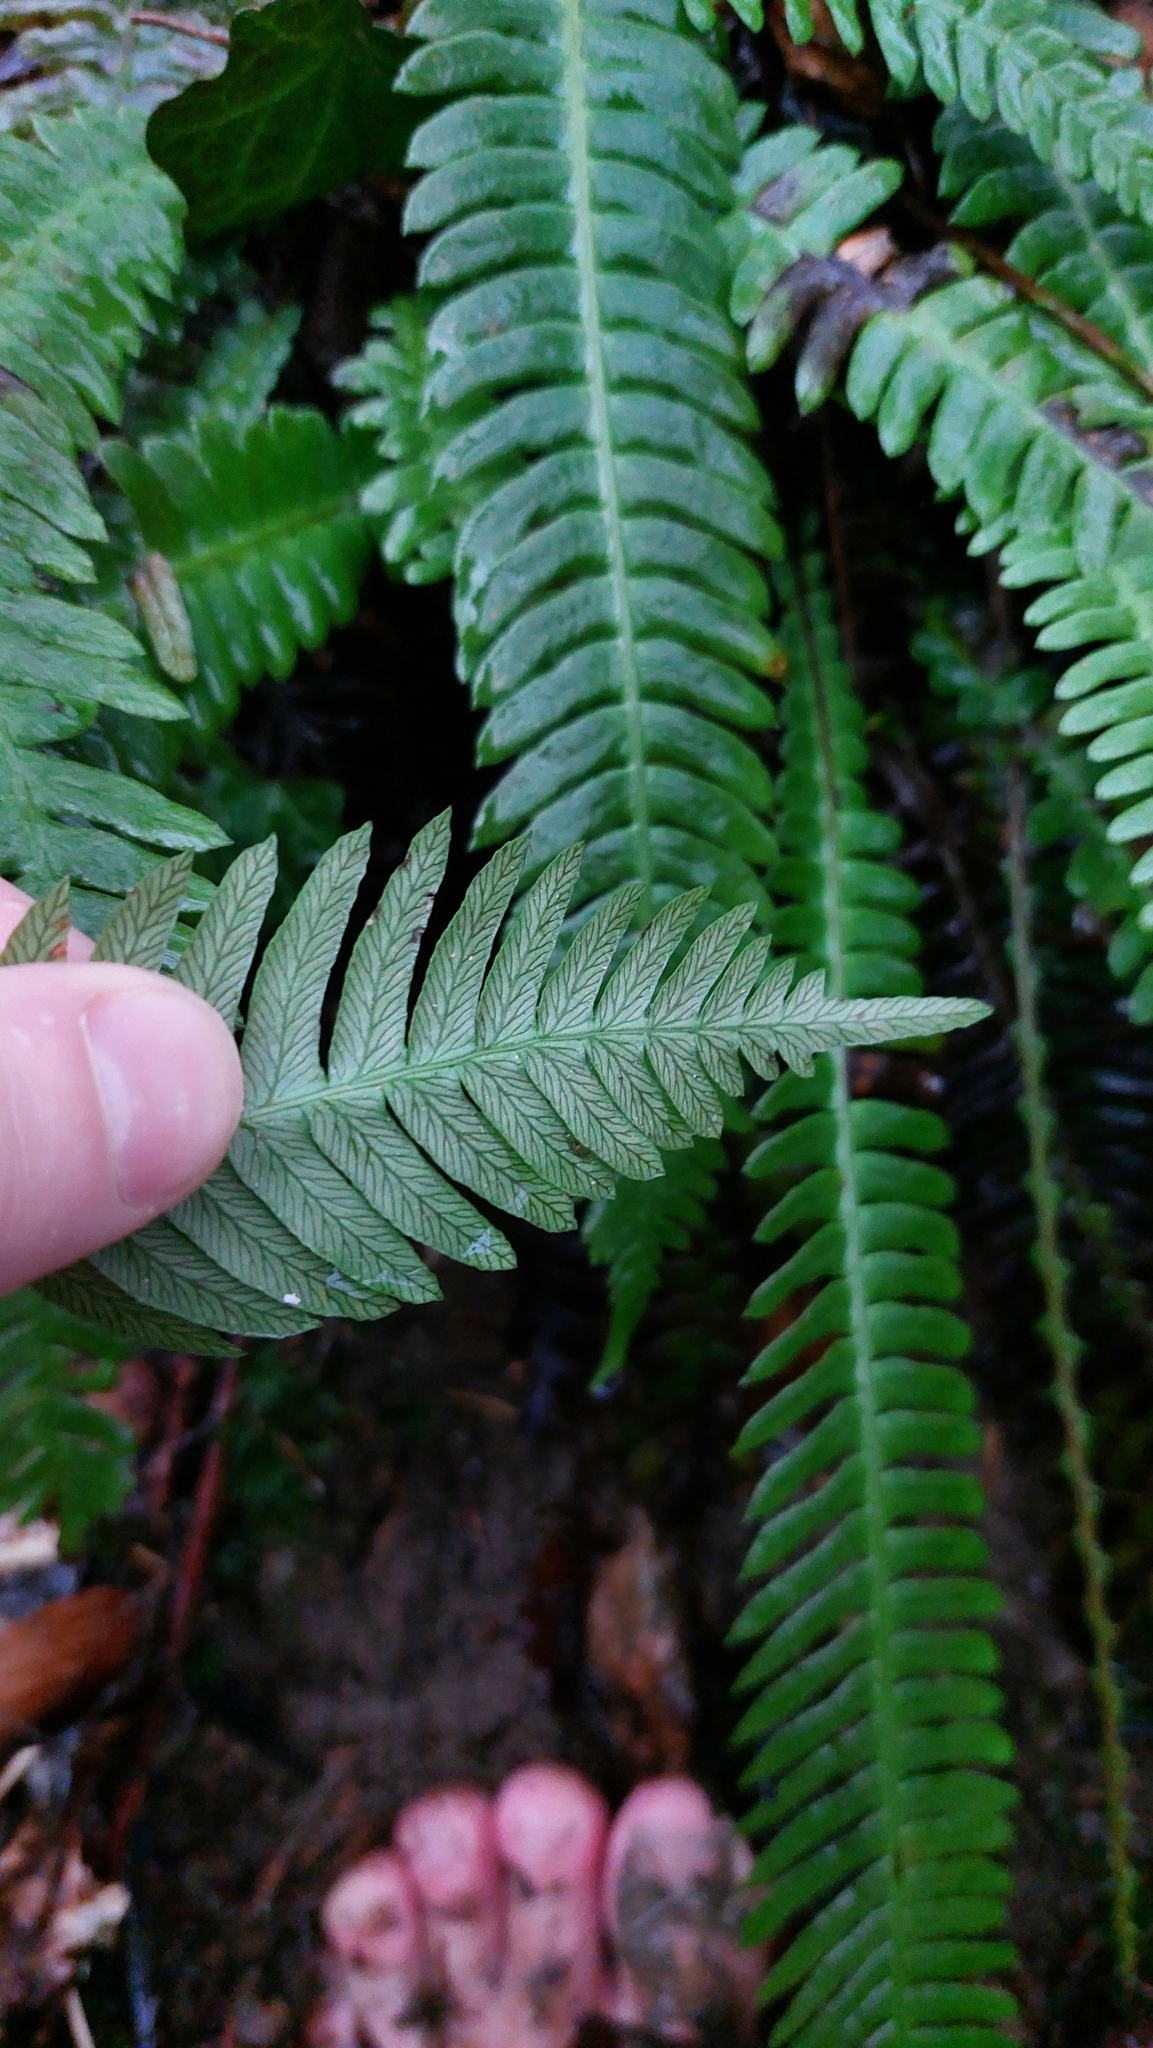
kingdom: Plantae
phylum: Tracheophyta
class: Polypodiopsida
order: Polypodiales
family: Blechnaceae
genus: Struthiopteris
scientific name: Struthiopteris spicant
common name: Deer fern
